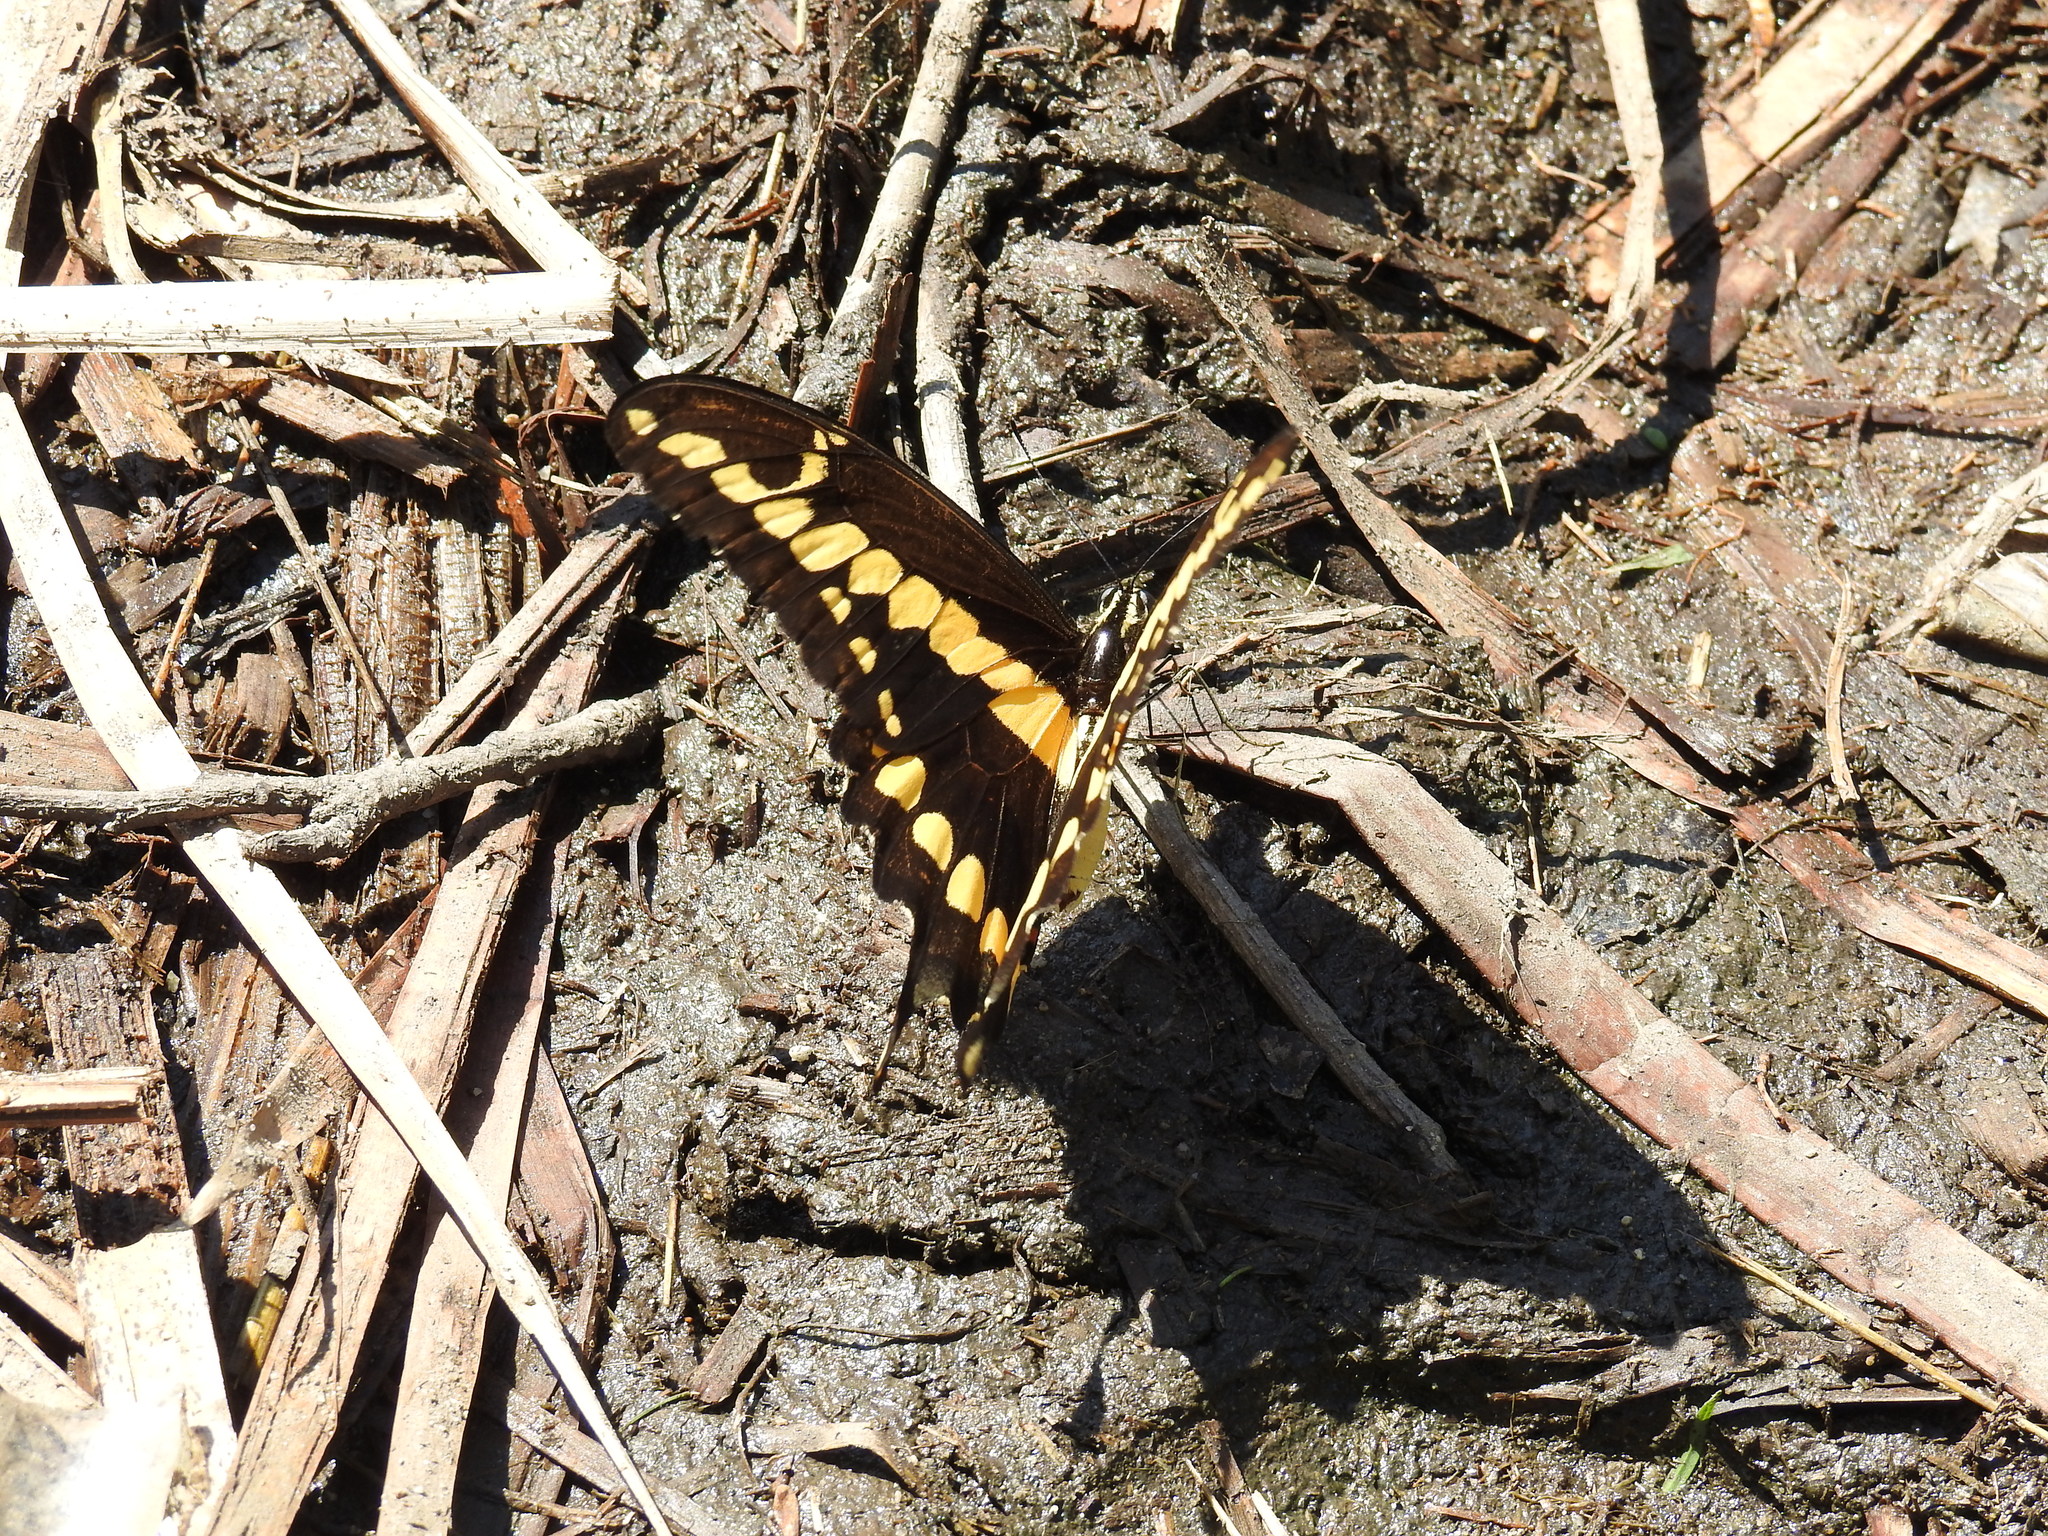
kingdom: Animalia
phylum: Arthropoda
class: Insecta
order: Lepidoptera
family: Papilionidae
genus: Papilio
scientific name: Papilio rumiko
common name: Western giant swallowtail
